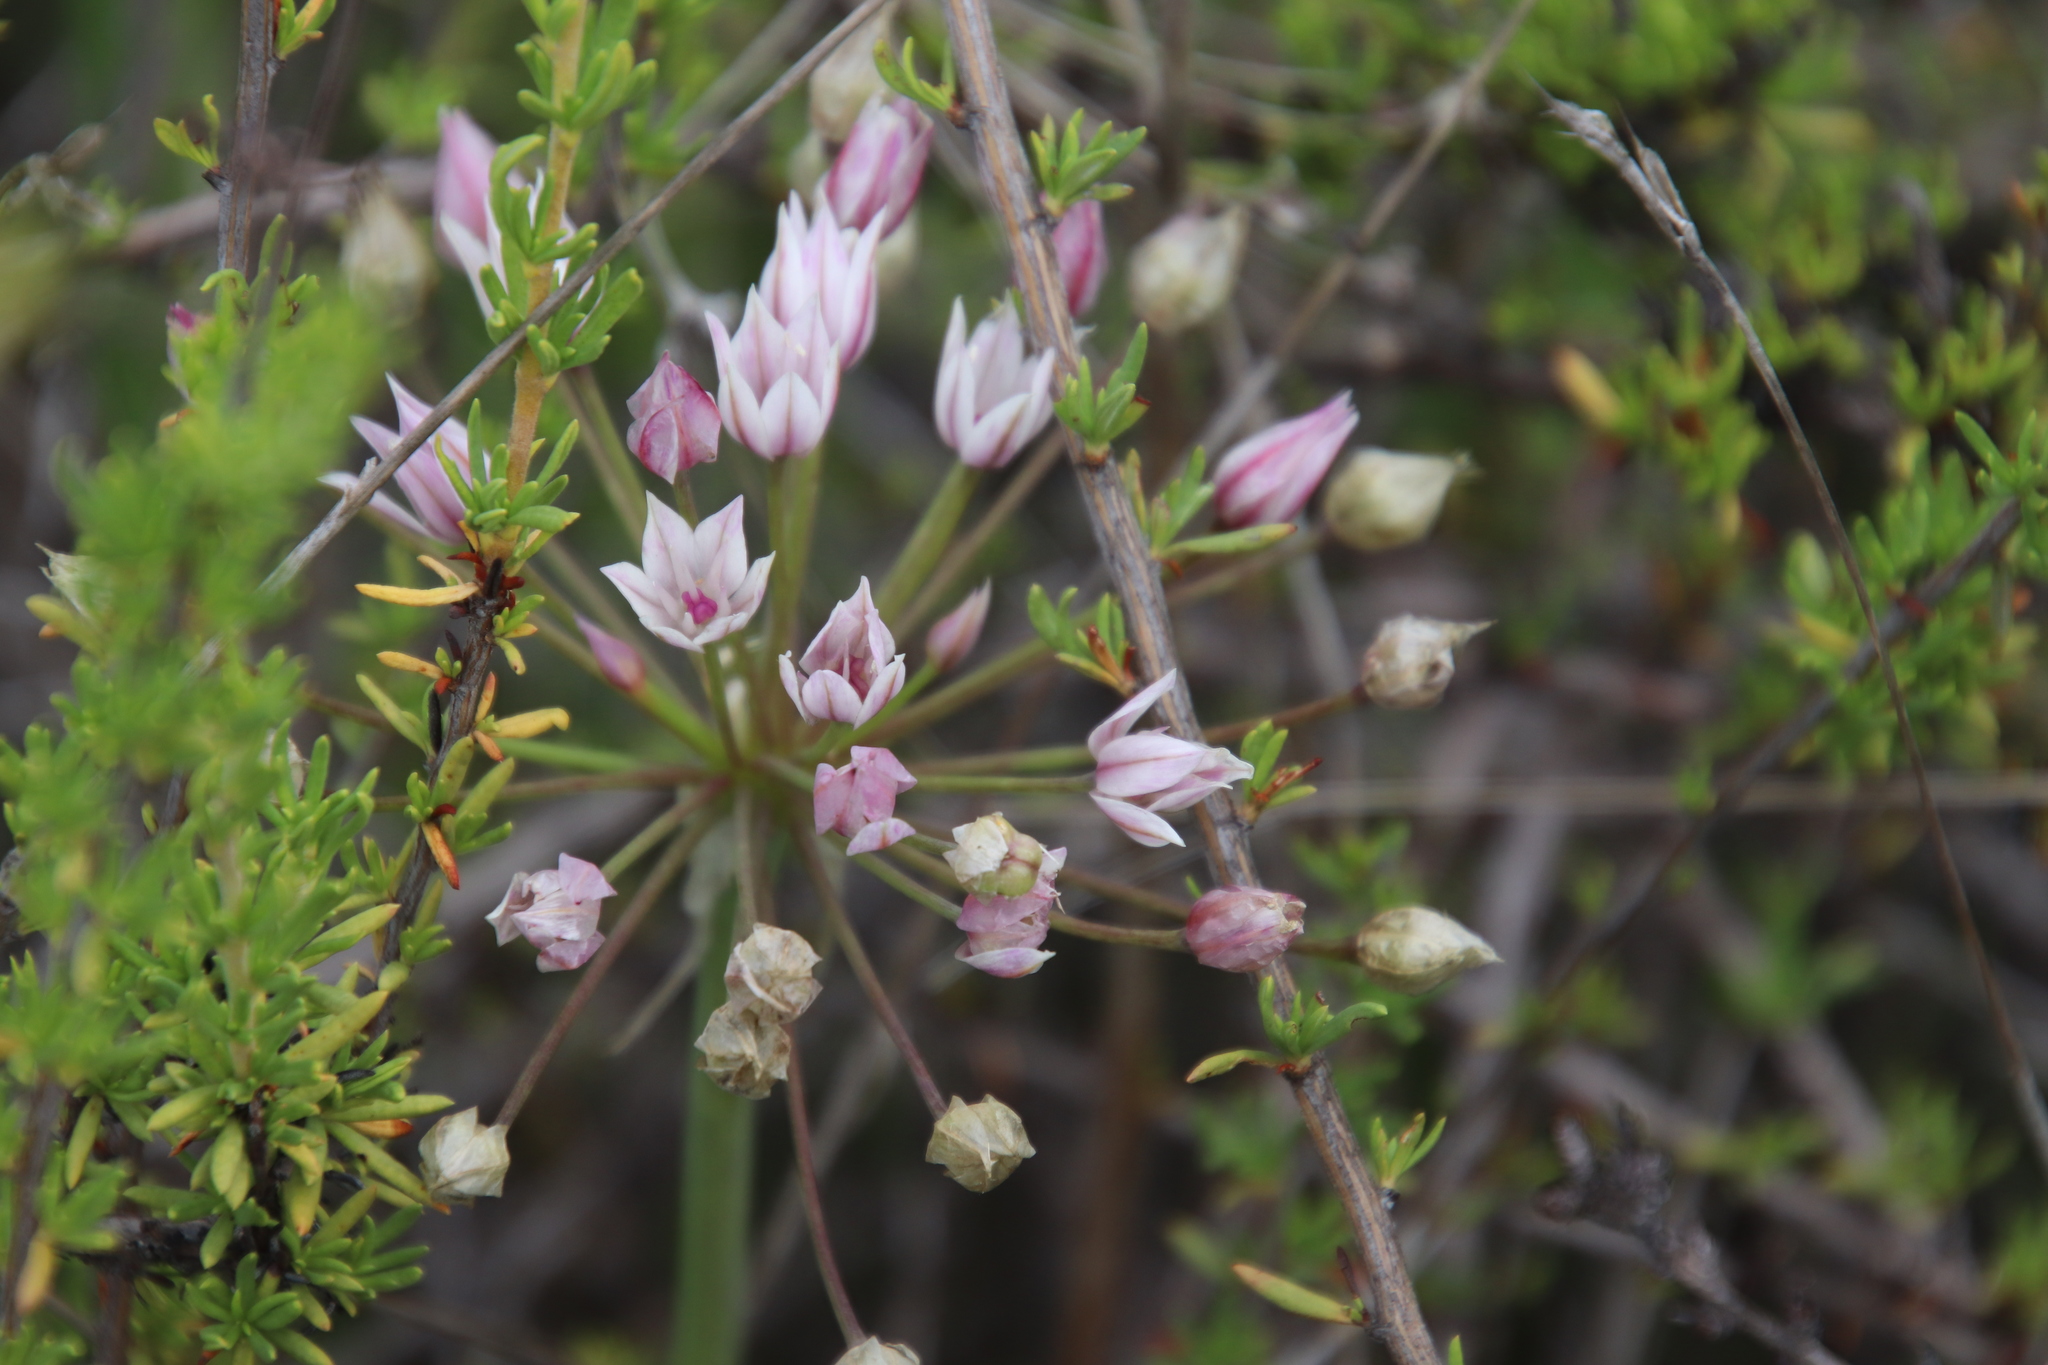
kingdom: Plantae
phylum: Tracheophyta
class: Liliopsida
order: Asparagales
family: Amaryllidaceae
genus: Allium
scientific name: Allium praecox
